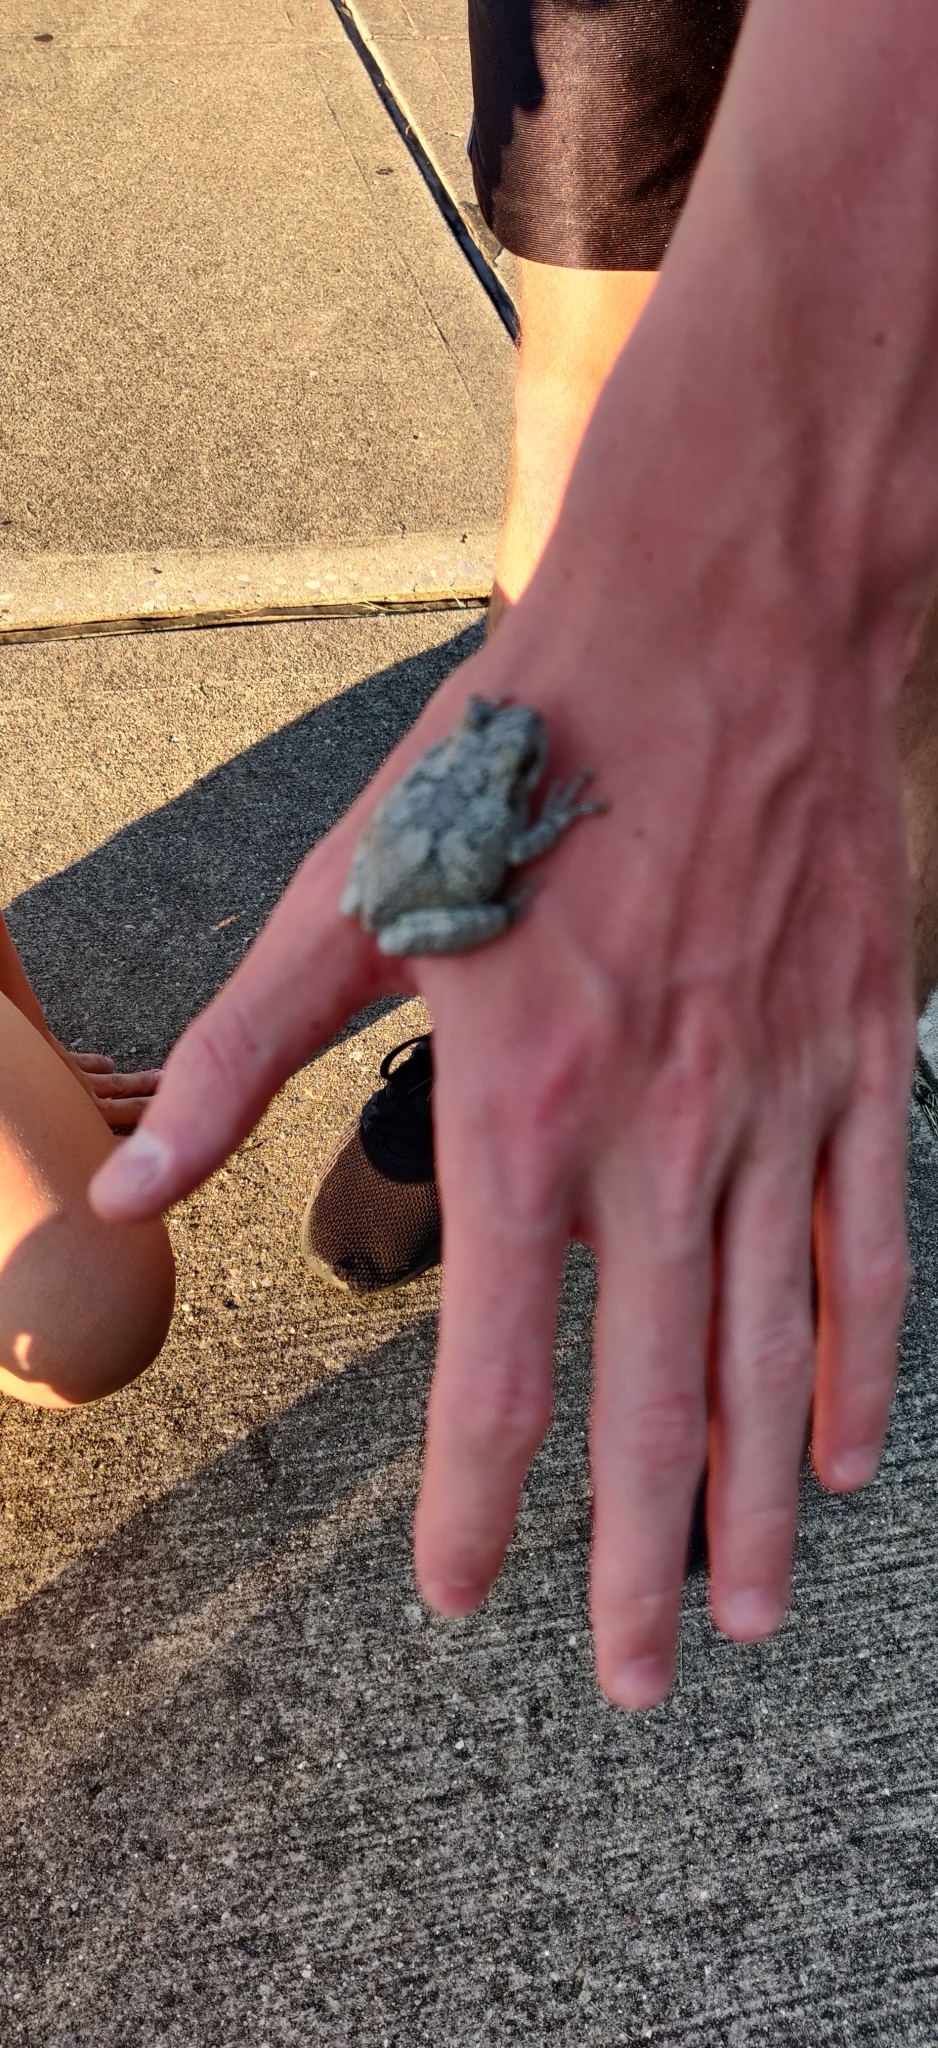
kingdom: Animalia
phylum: Chordata
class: Amphibia
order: Anura
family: Hylidae
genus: Hyla
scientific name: Hyla
